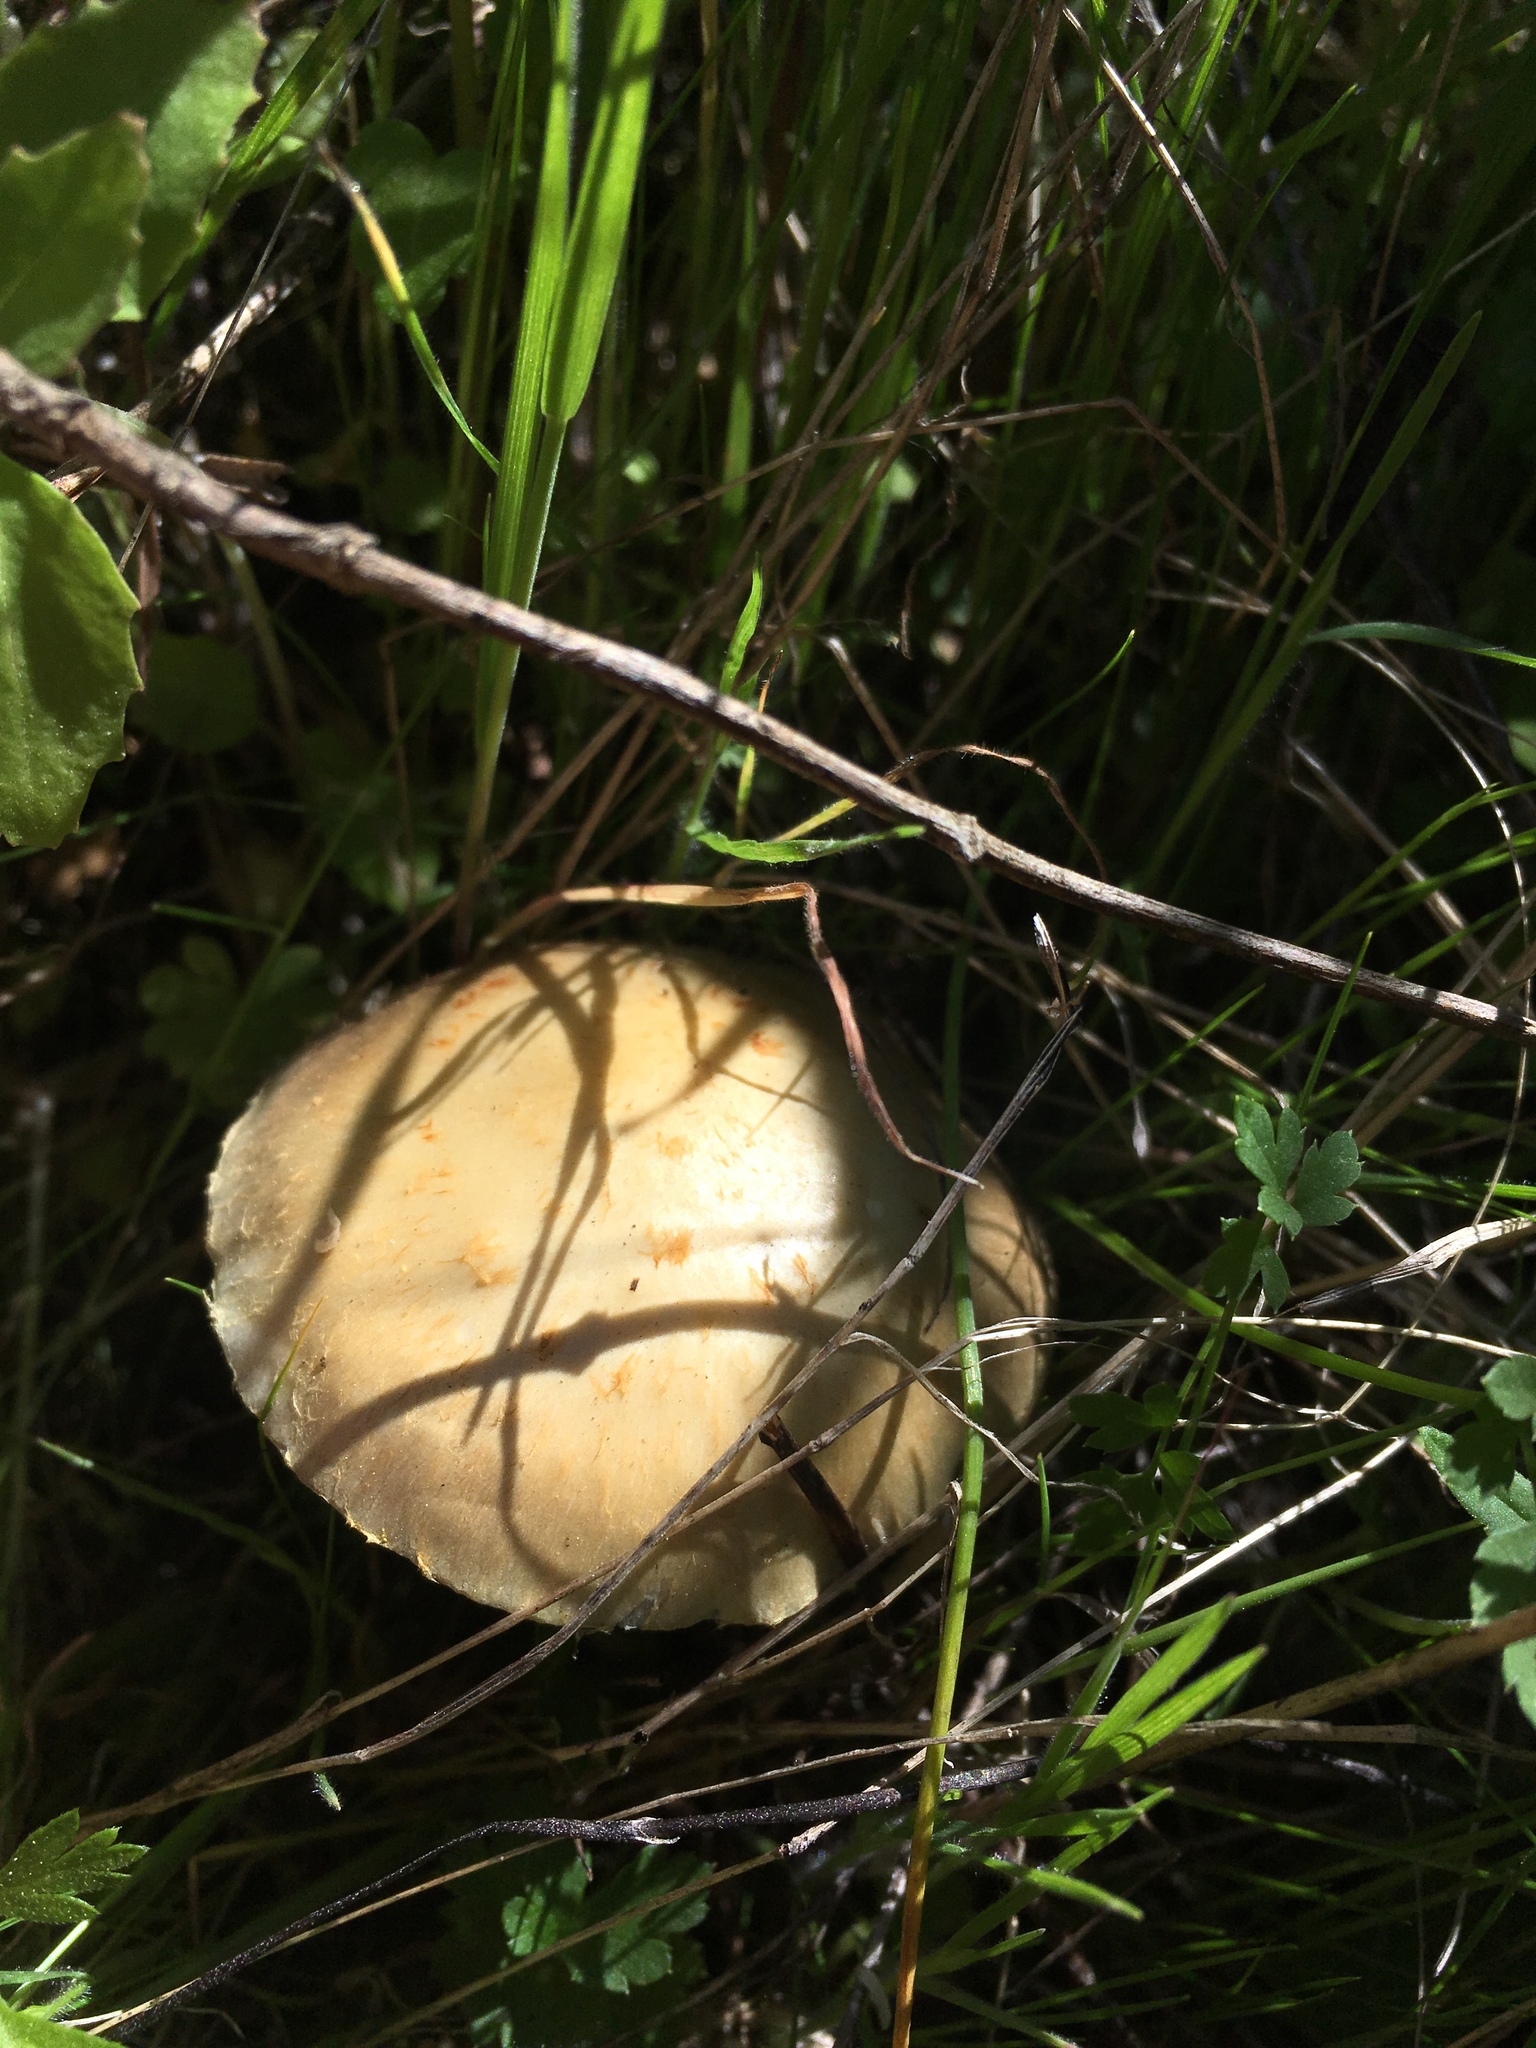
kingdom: Fungi
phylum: Basidiomycota
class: Agaricomycetes
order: Agaricales
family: Strophariaceae
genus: Leratiomyces
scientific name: Leratiomyces percevalii
